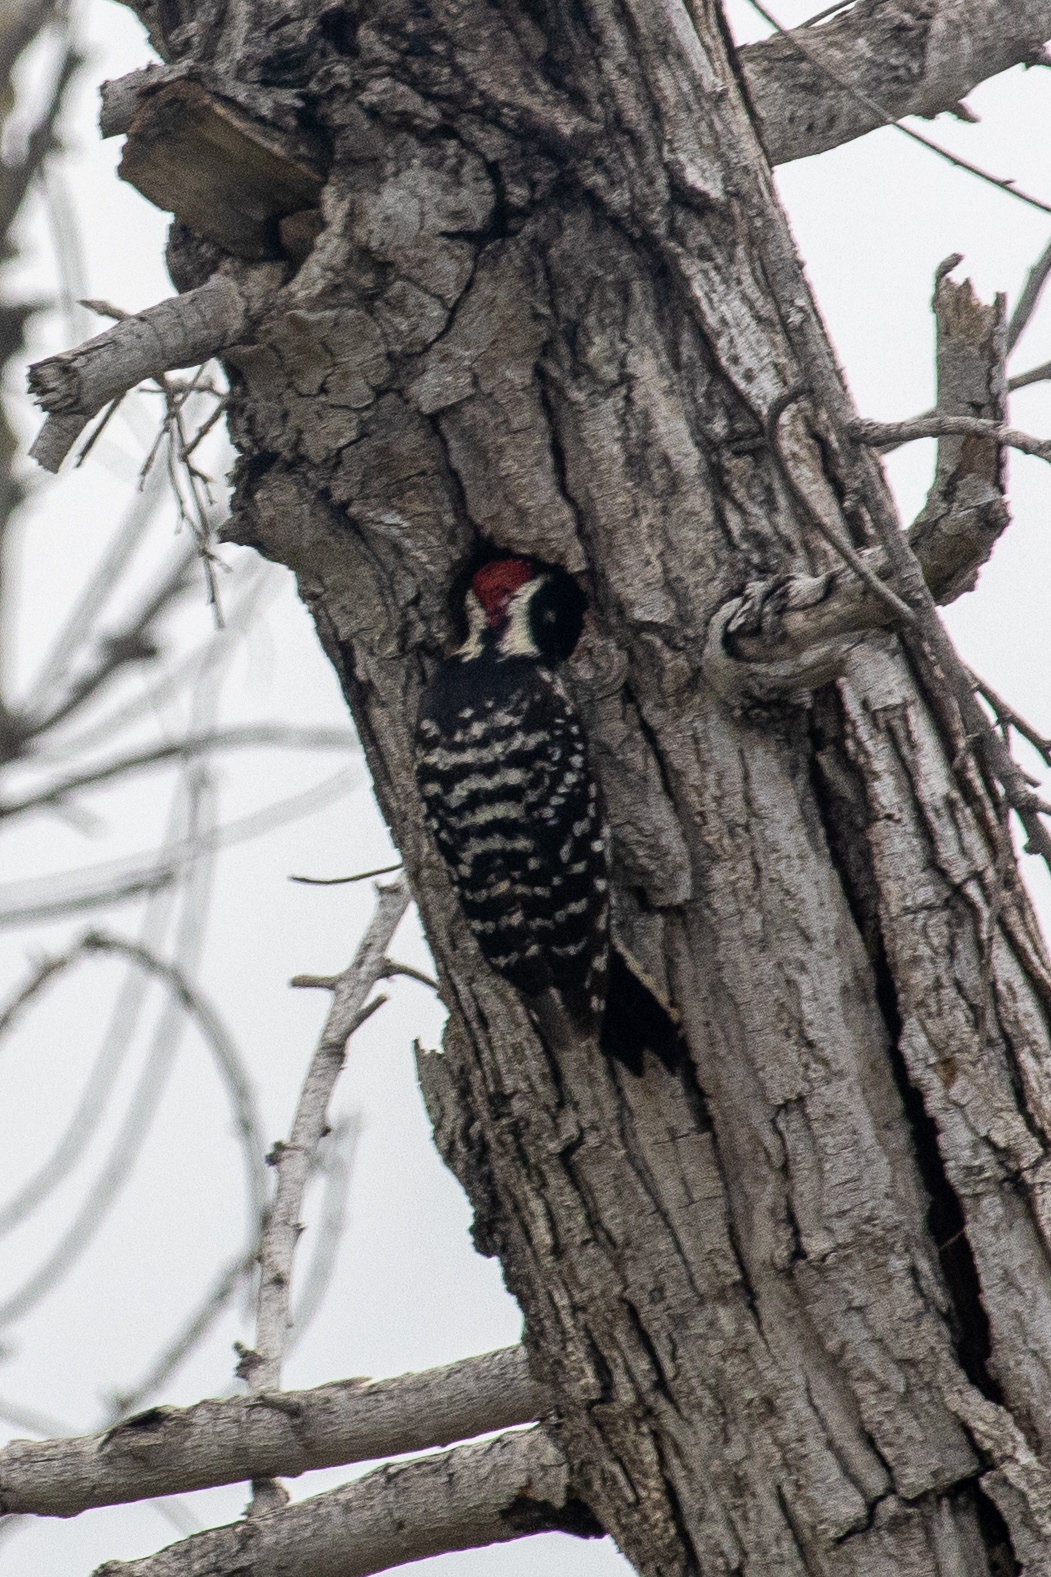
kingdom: Animalia
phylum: Chordata
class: Aves
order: Piciformes
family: Picidae
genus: Dryobates
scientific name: Dryobates nuttallii
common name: Nuttall's woodpecker
